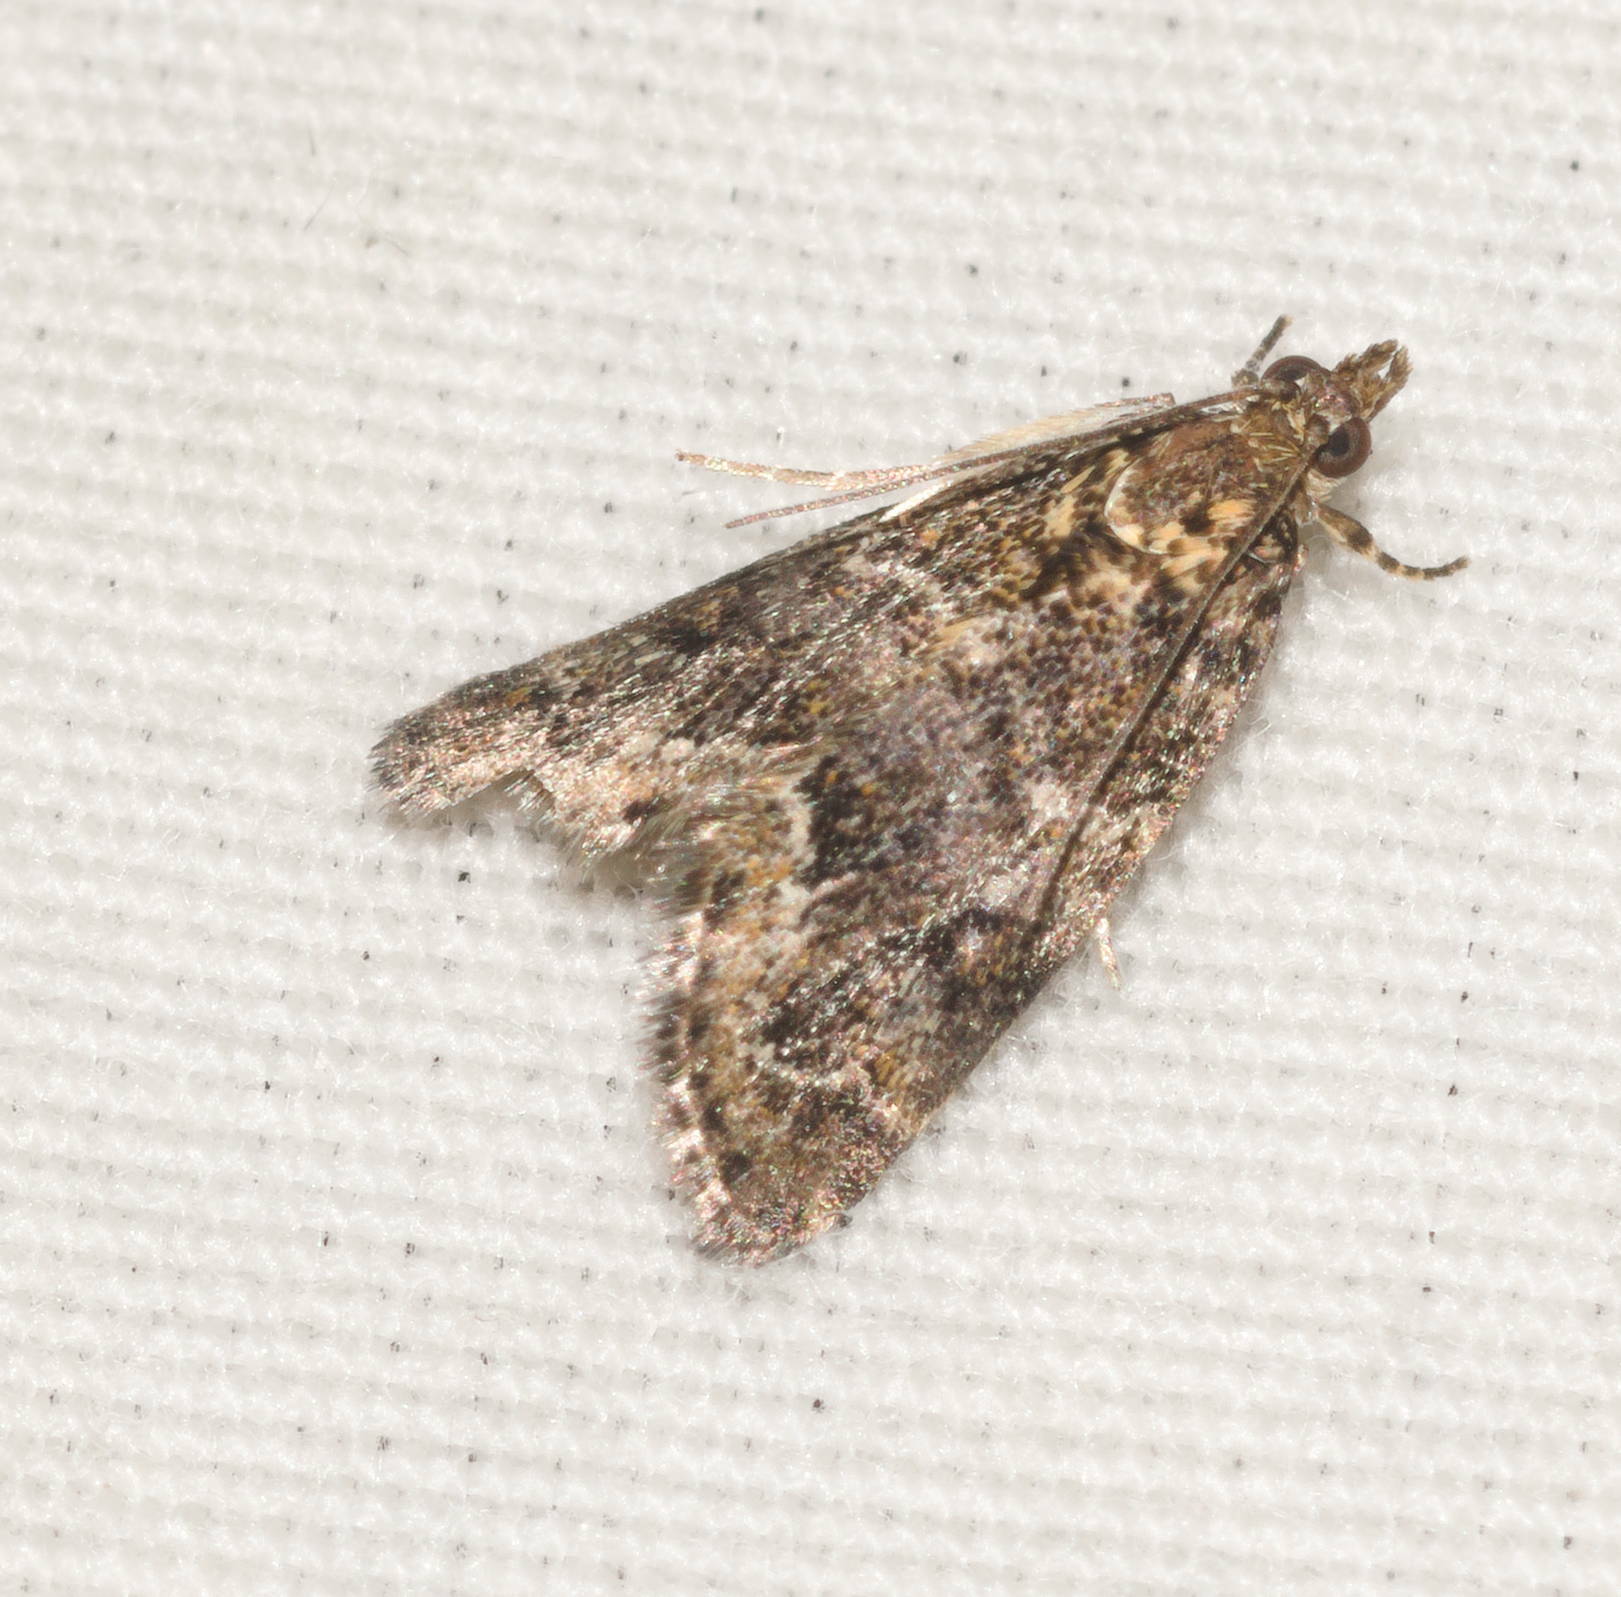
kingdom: Animalia
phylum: Arthropoda
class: Insecta
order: Lepidoptera
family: Crambidae
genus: Mestolobes
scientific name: Mestolobes abnormis
